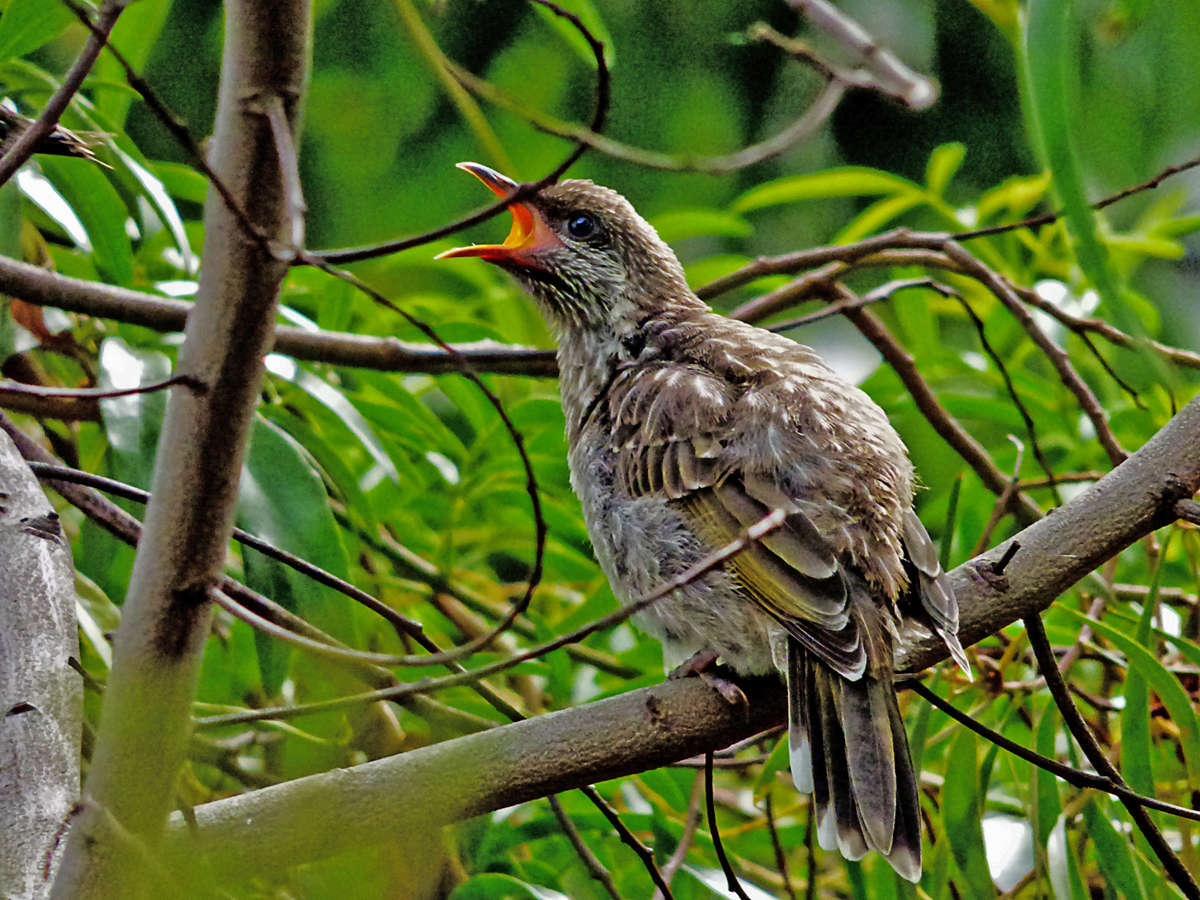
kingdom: Animalia
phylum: Chordata
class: Aves
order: Passeriformes
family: Meliphagidae
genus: Anthochaera
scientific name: Anthochaera chrysoptera
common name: Little wattlebird
